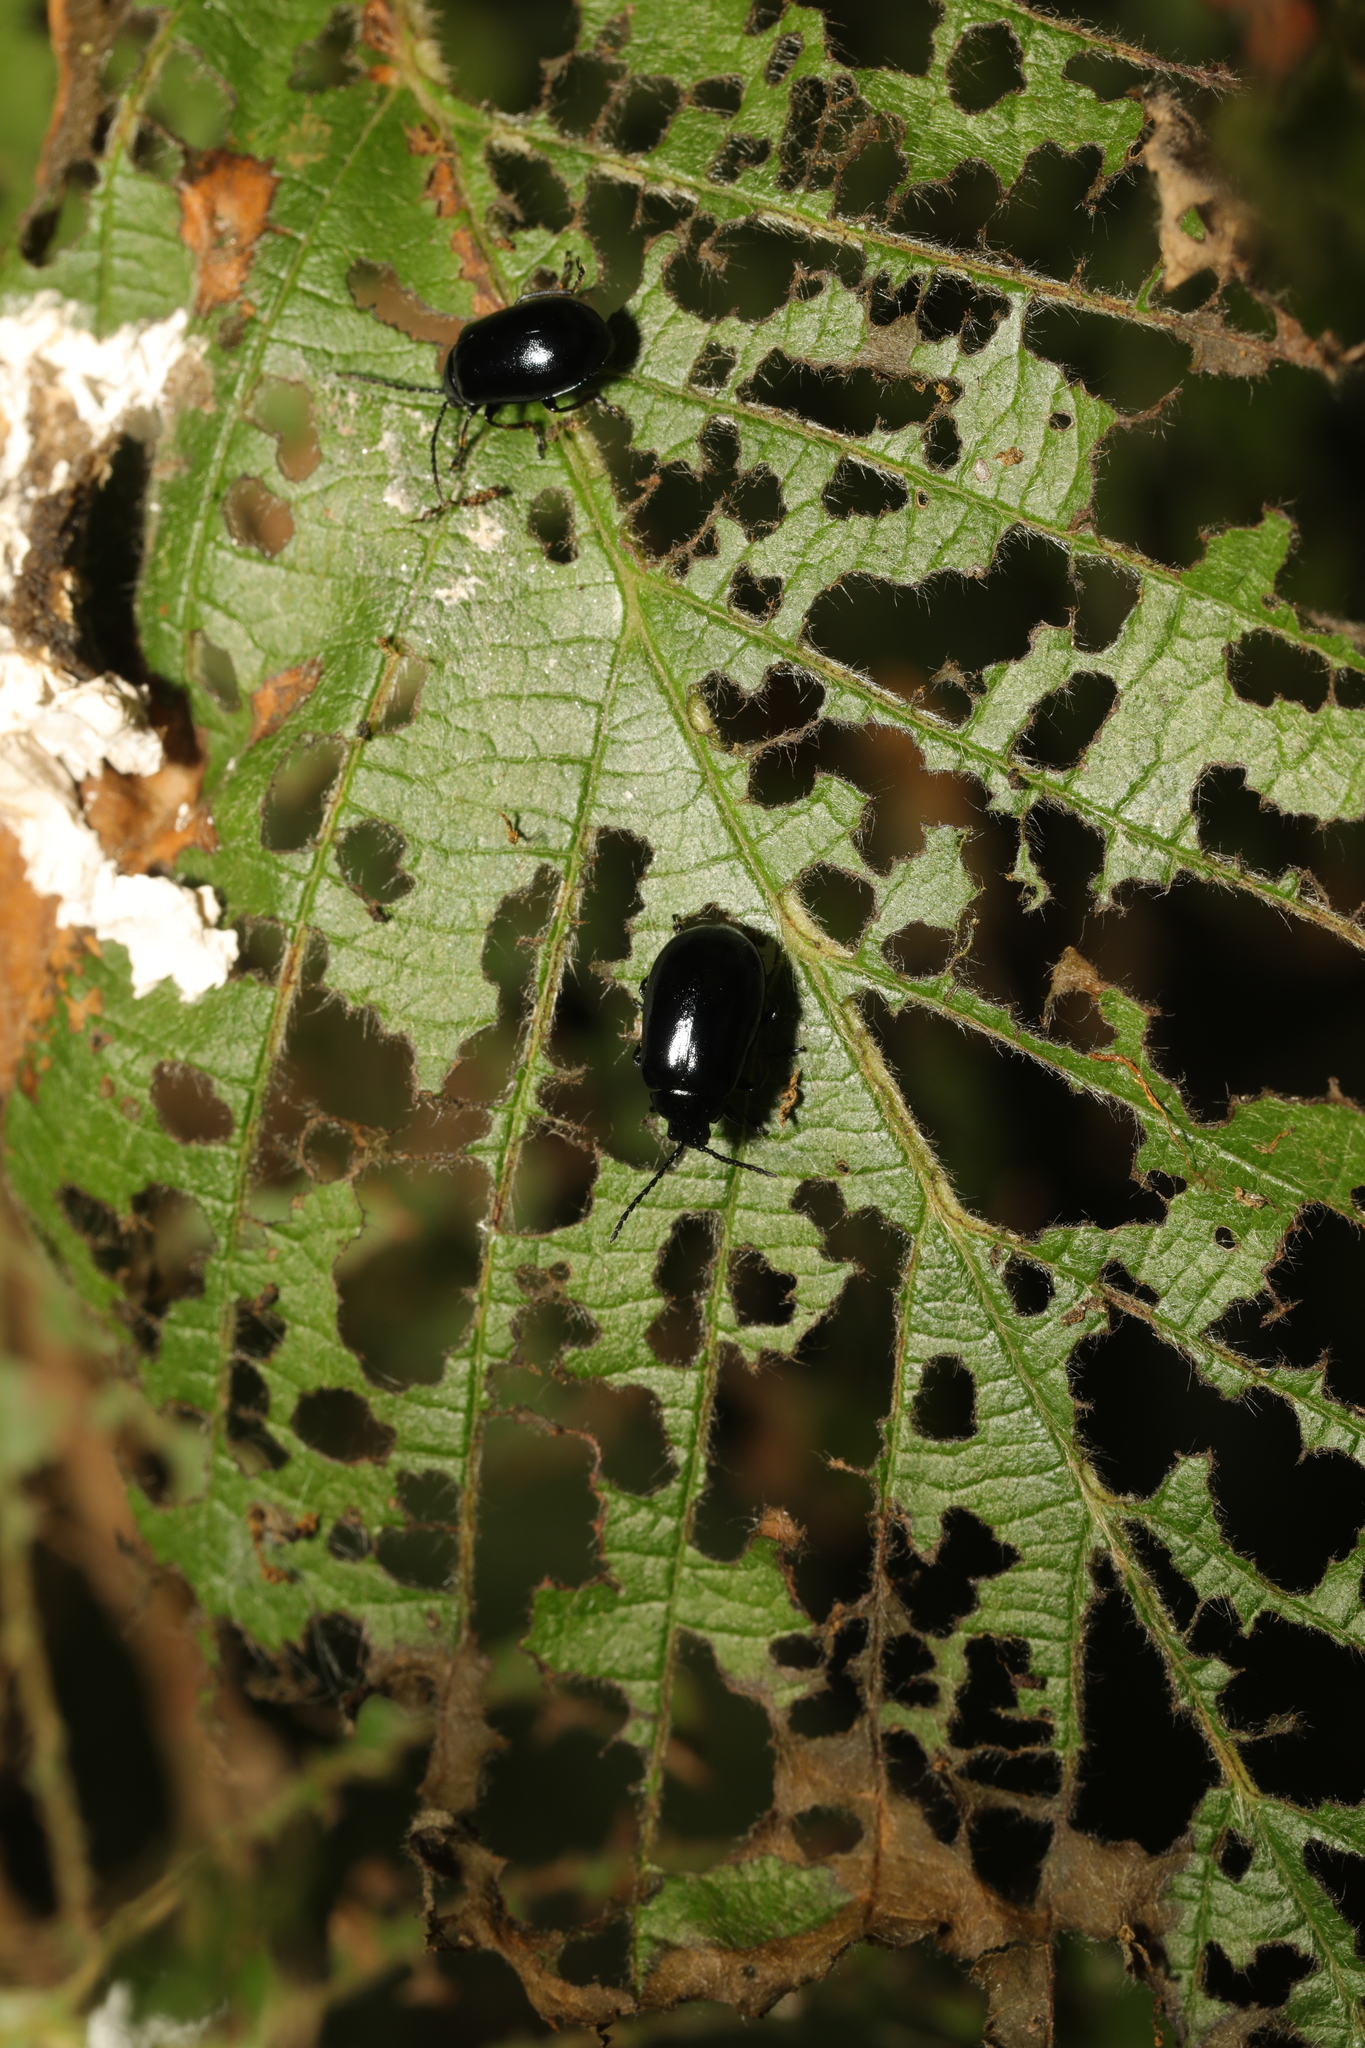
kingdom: Animalia
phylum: Arthropoda
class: Insecta
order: Coleoptera
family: Chrysomelidae
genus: Agelastica
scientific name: Agelastica alni
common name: Alder leaf beetle
